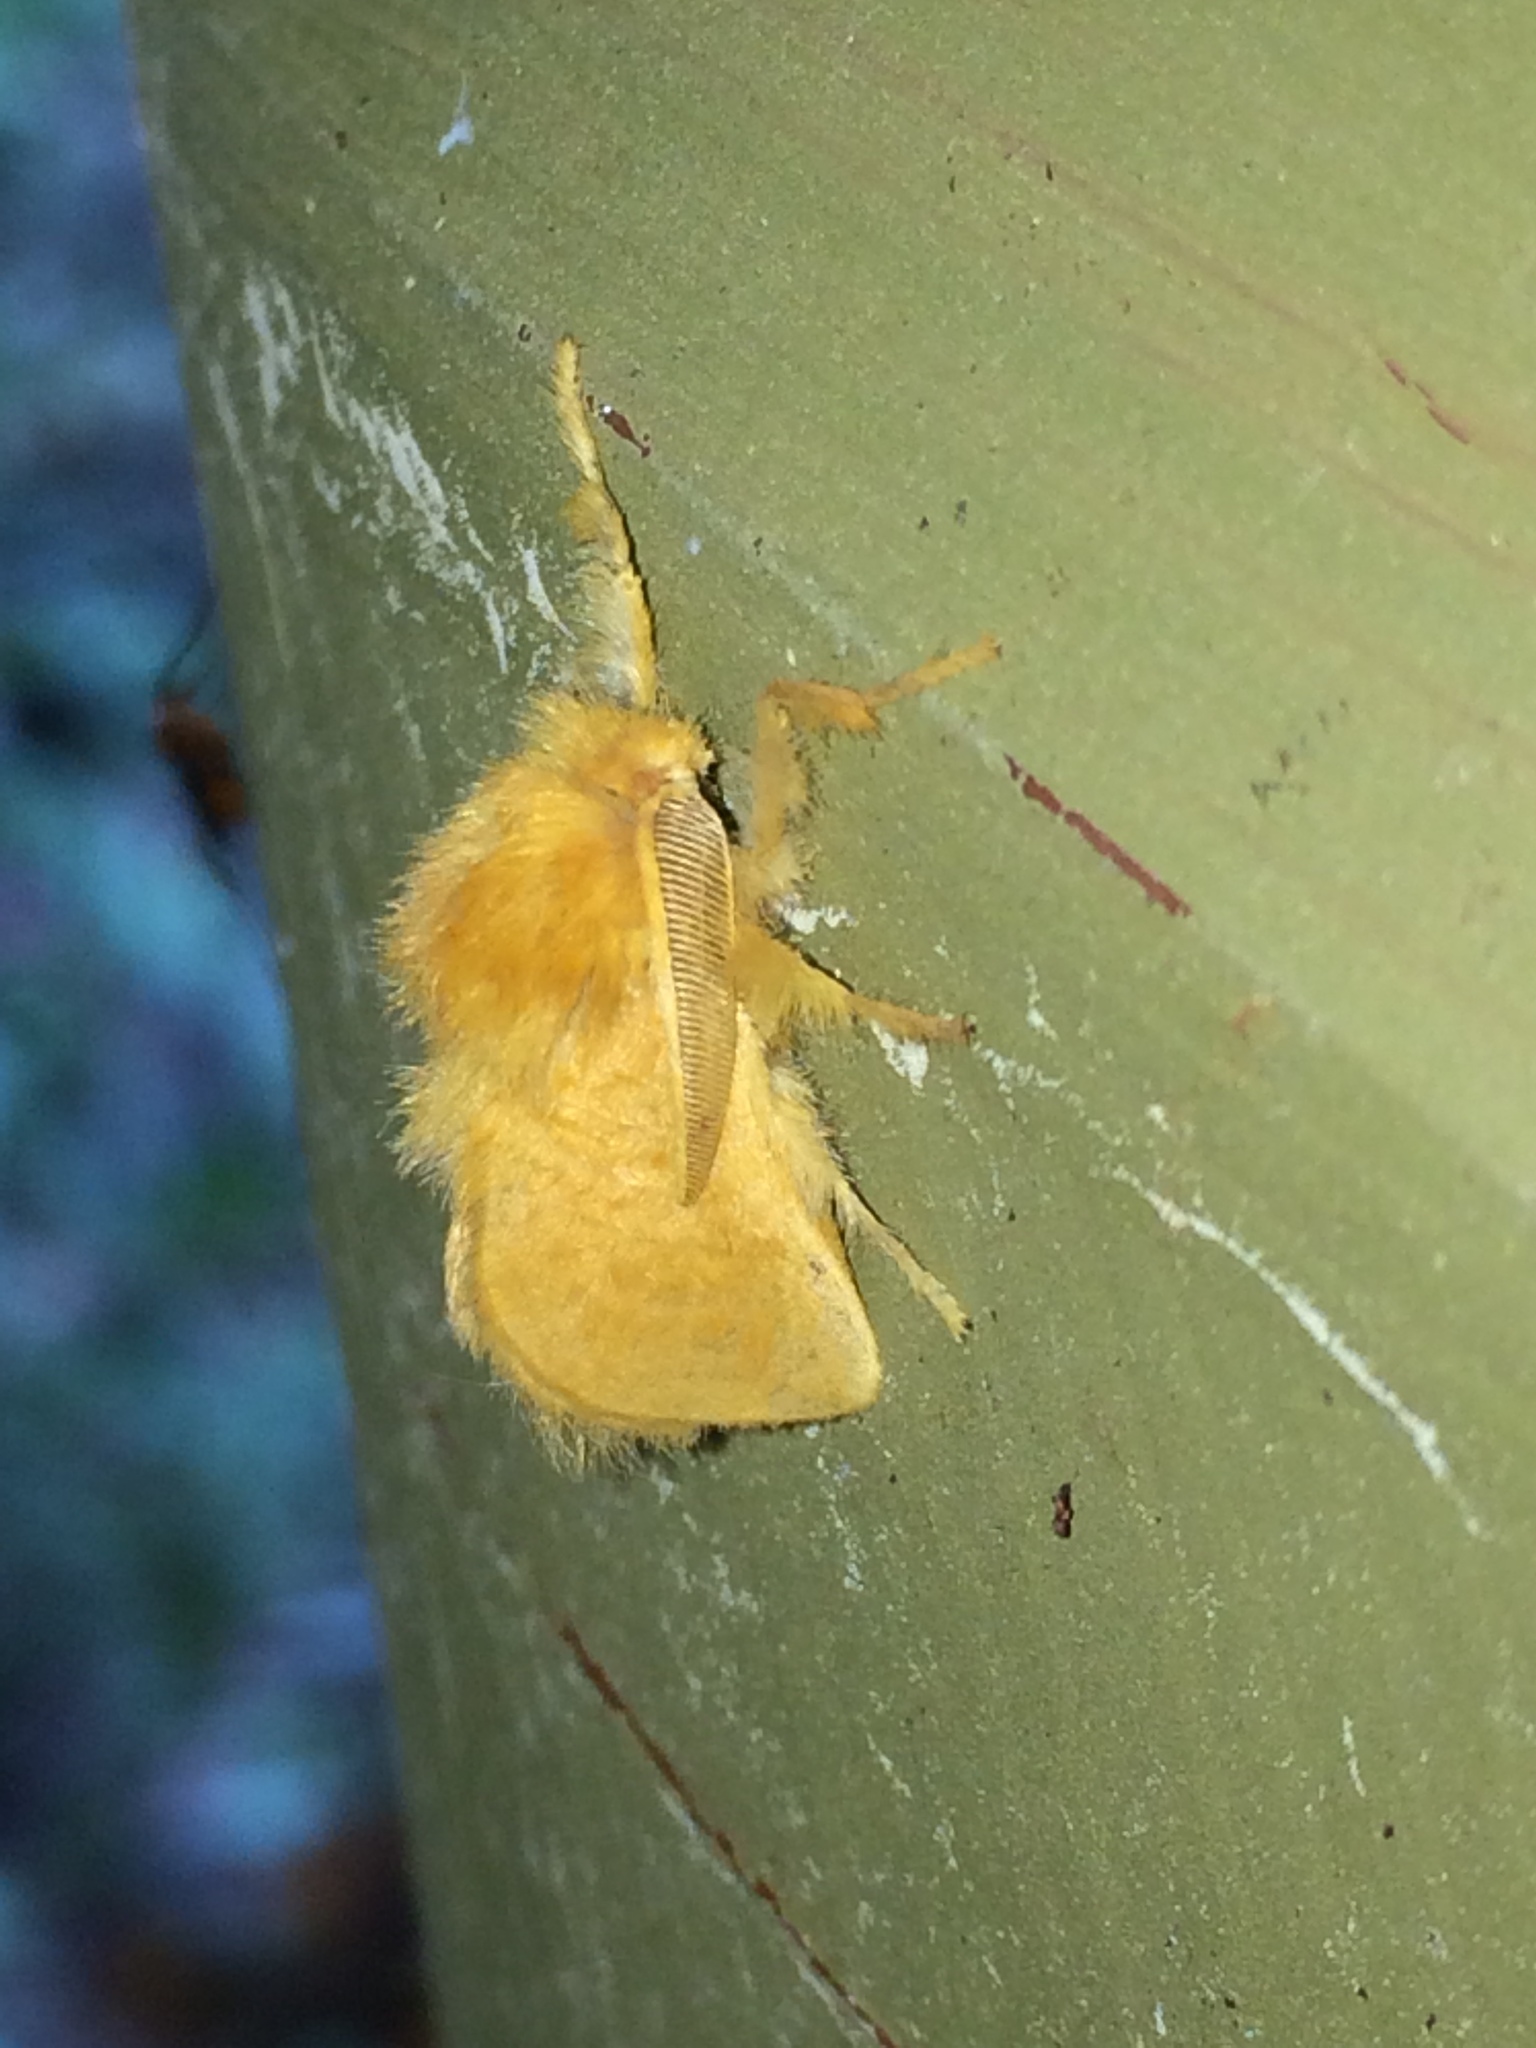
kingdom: Animalia
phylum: Arthropoda
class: Insecta
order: Lepidoptera
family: Megalopygidae
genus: Megalopyge
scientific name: Megalopyge pixidifera
